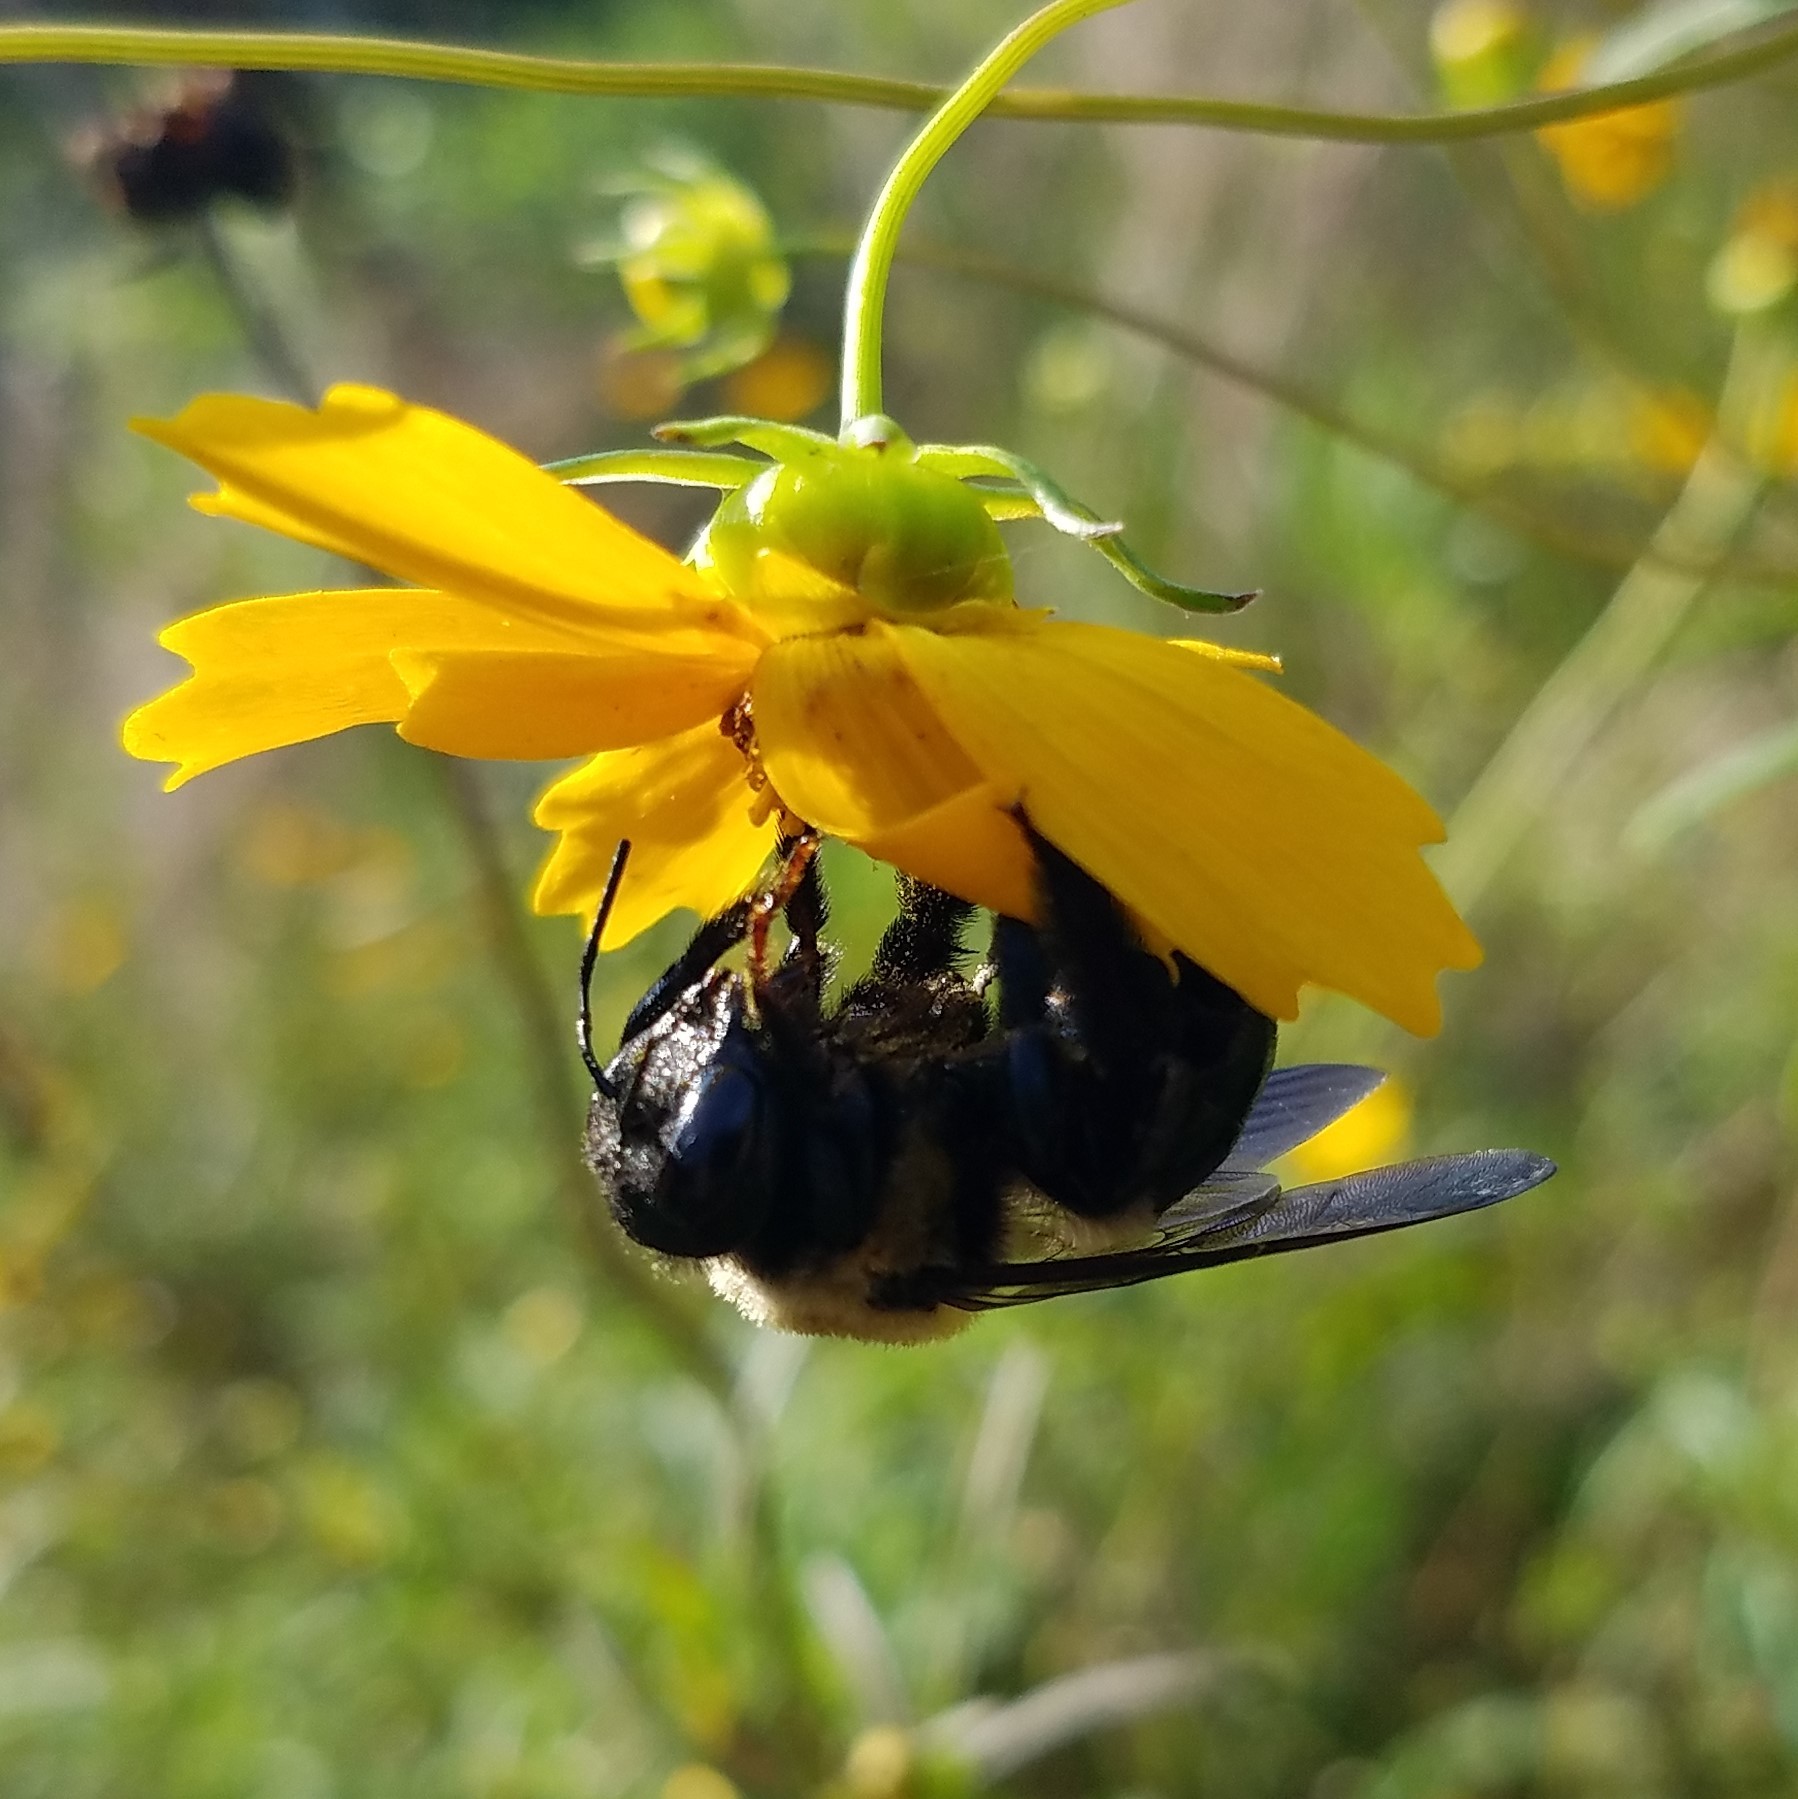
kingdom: Animalia
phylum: Arthropoda
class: Insecta
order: Hymenoptera
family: Apidae
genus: Xylocopa
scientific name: Xylocopa virginica
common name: Carpenter bee
